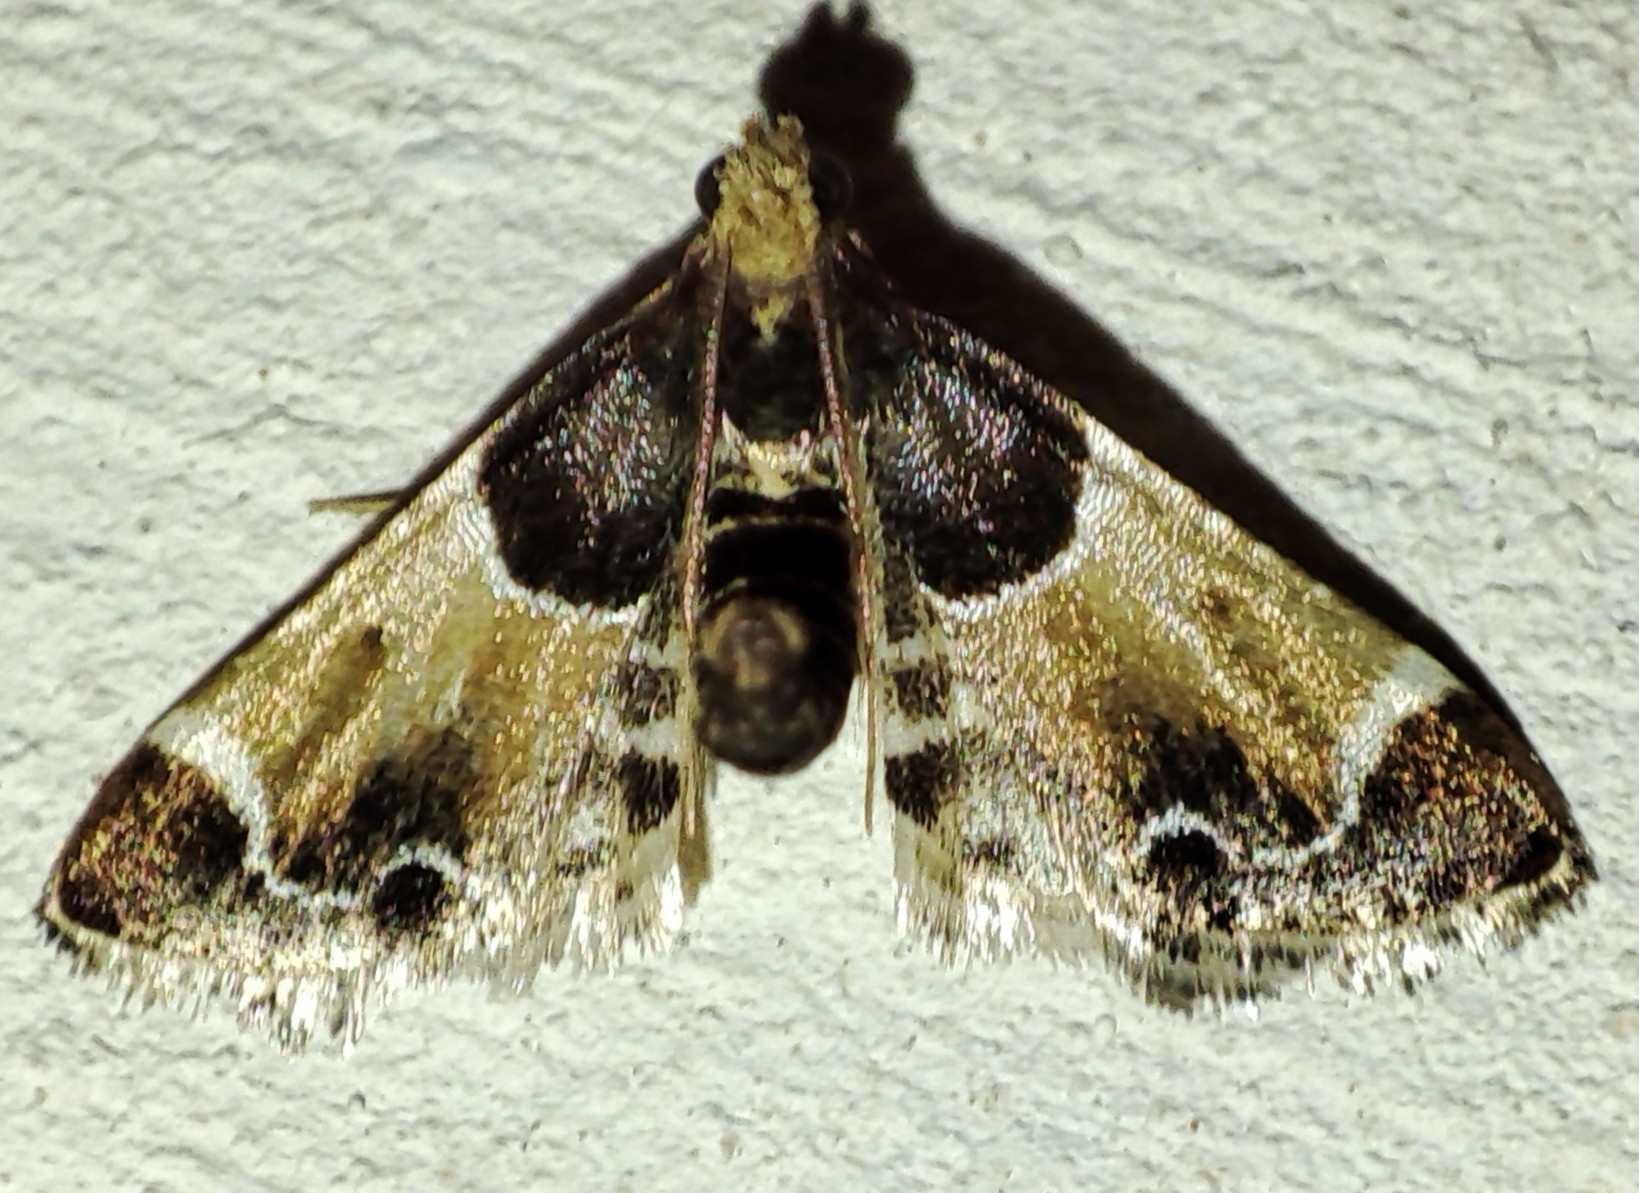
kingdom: Animalia
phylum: Arthropoda
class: Insecta
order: Lepidoptera
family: Pyralidae
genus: Pyralis
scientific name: Pyralis farinalis
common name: Meal moth
